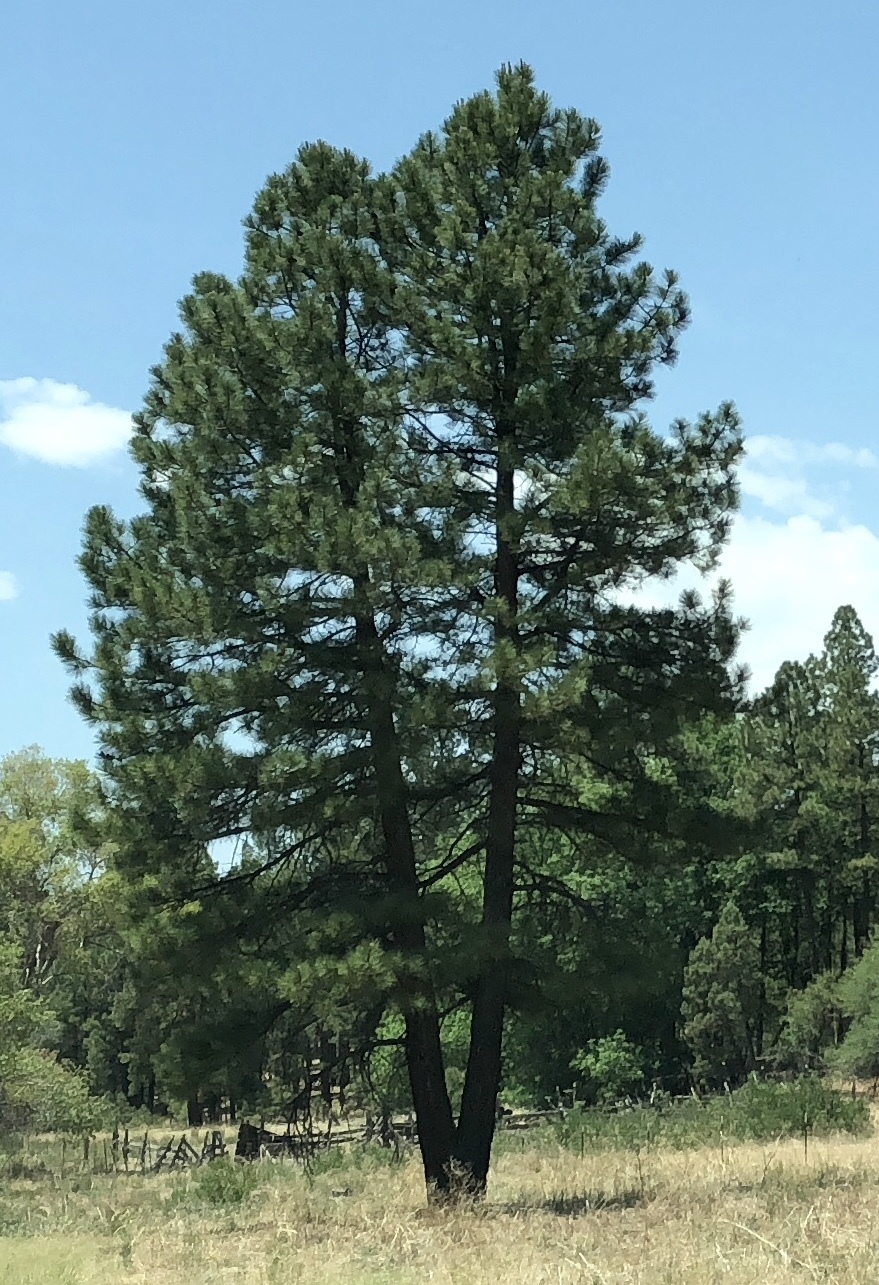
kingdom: Plantae
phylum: Tracheophyta
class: Pinopsida
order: Pinales
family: Pinaceae
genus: Pinus
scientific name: Pinus ponderosa
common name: Western yellow-pine
